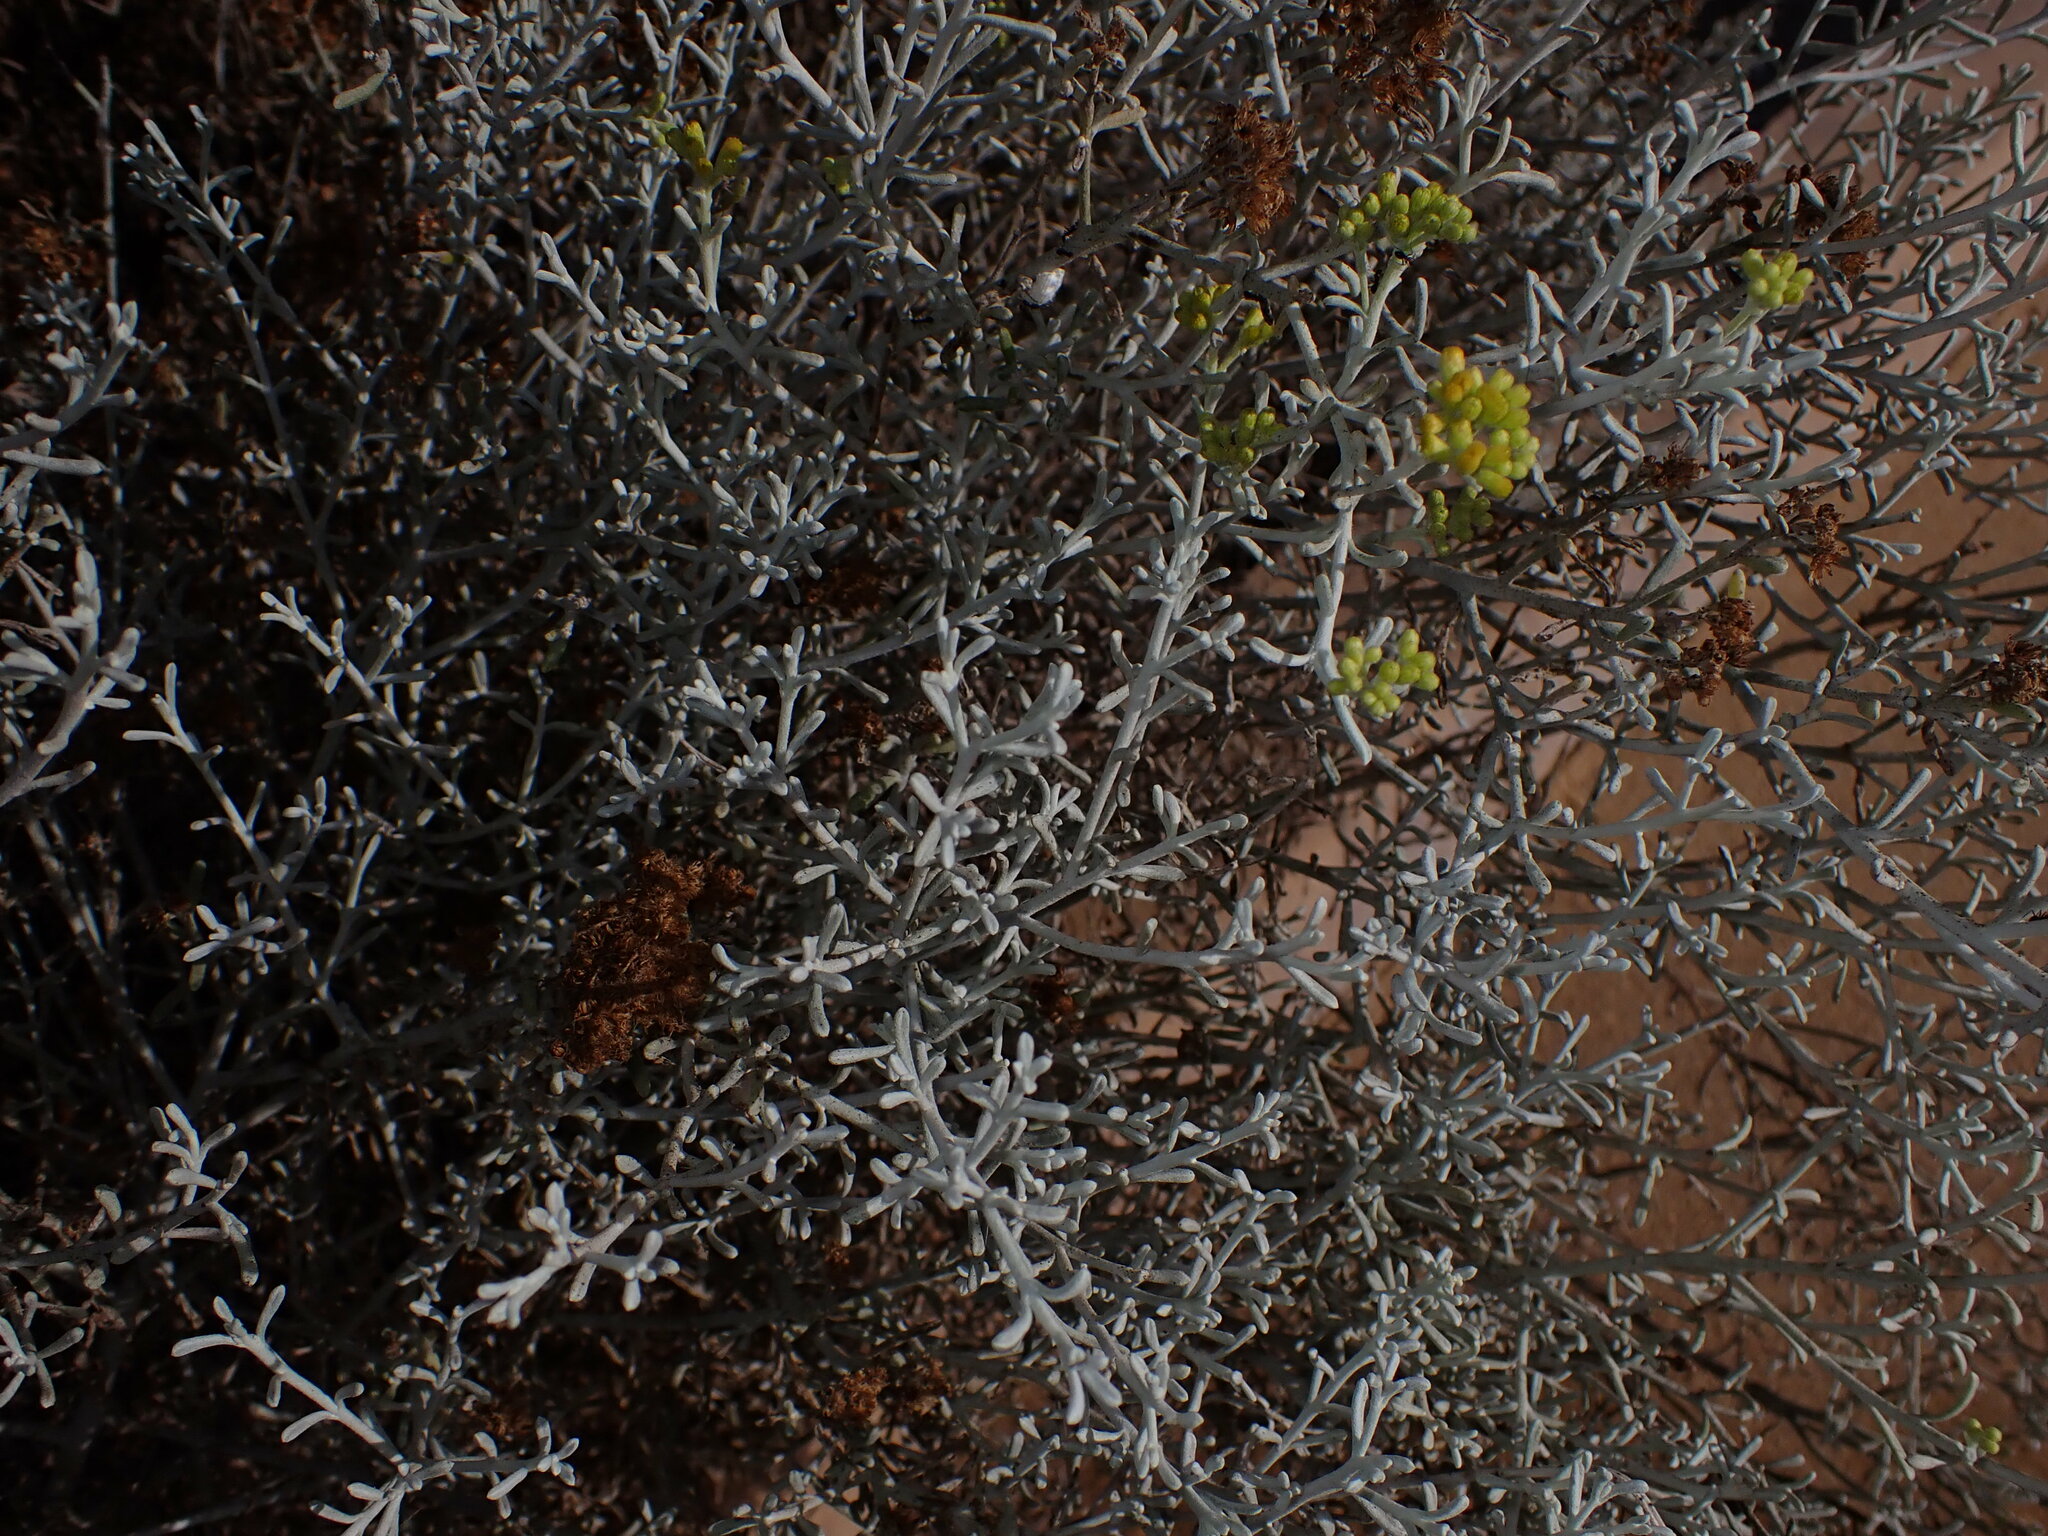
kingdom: Plantae
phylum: Tracheophyta
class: Magnoliopsida
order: Asterales
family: Asteraceae
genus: Schizogyne
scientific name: Schizogyne sericea
